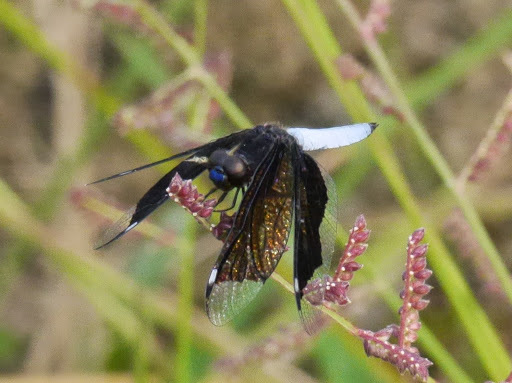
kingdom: Animalia
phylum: Arthropoda
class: Insecta
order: Odonata
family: Libellulidae
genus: Palpopleura
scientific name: Palpopleura lucia
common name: Lucia widow
